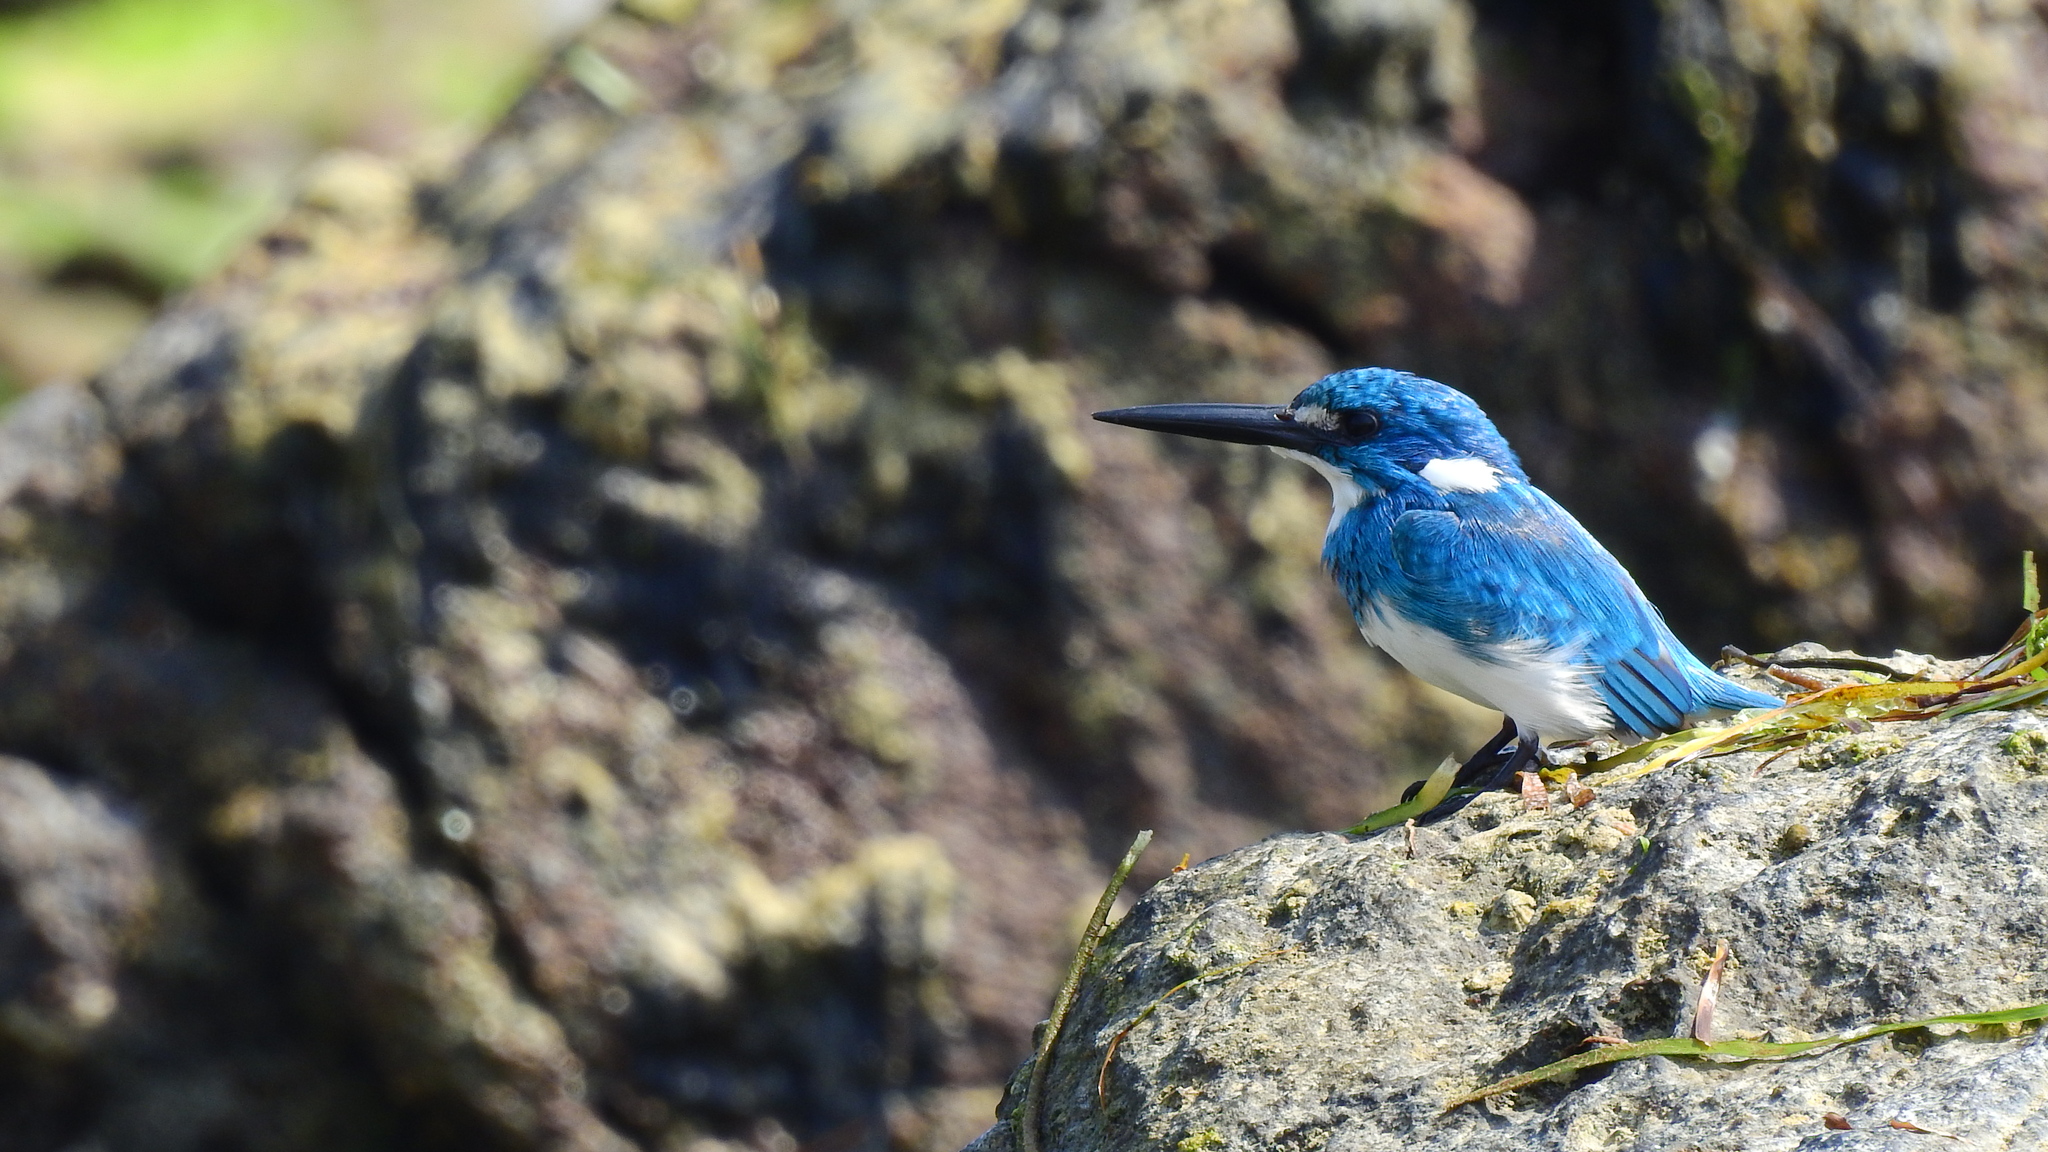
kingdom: Animalia
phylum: Chordata
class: Aves
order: Coraciiformes
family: Alcedinidae
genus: Alcedo
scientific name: Alcedo coerulescens
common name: Cerulean kingfisher
